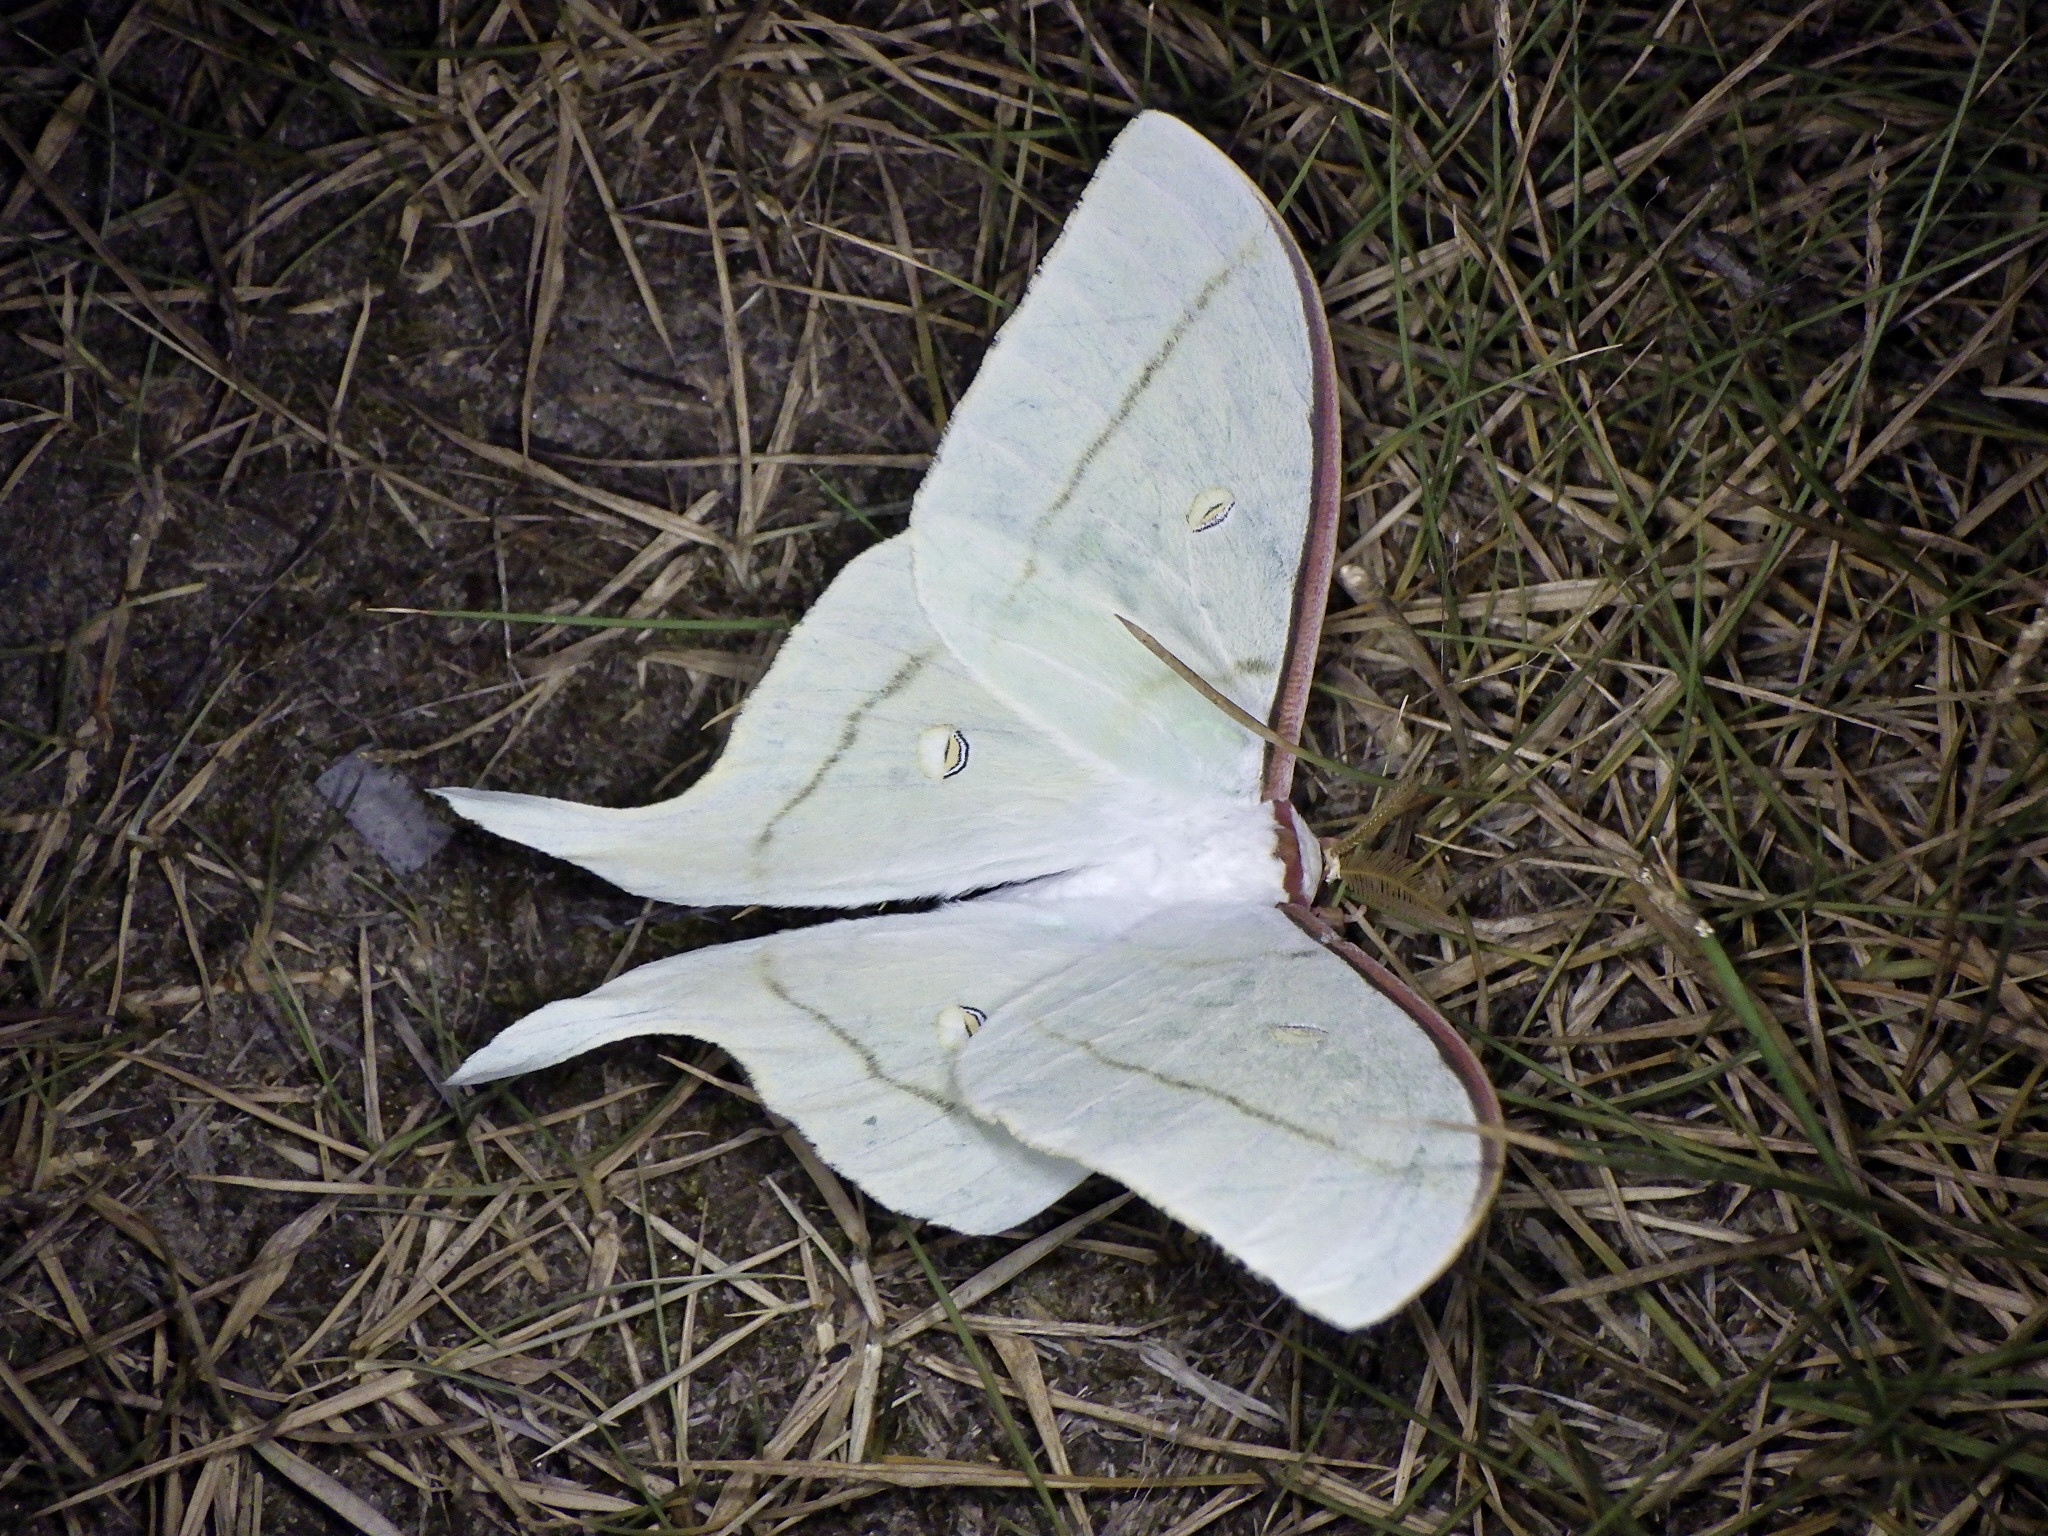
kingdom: Animalia
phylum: Arthropoda
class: Insecta
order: Lepidoptera
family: Saturniidae
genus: Actias
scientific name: Actias aliena
